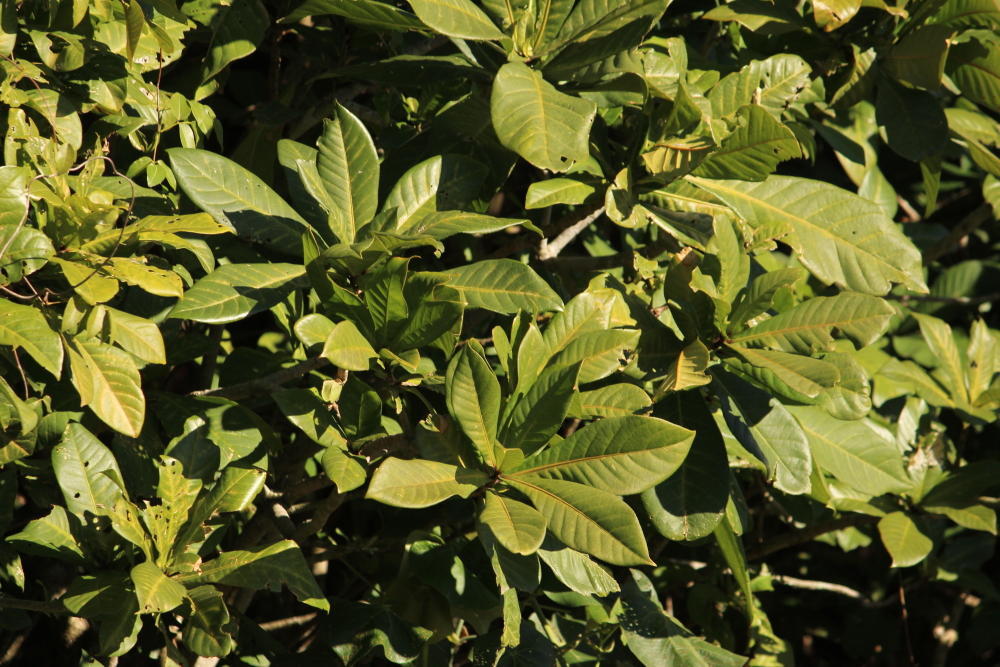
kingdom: Plantae
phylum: Tracheophyta
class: Magnoliopsida
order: Ericales
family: Lecythidaceae
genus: Barringtonia
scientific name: Barringtonia racemosa
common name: Brackwater mangrove
